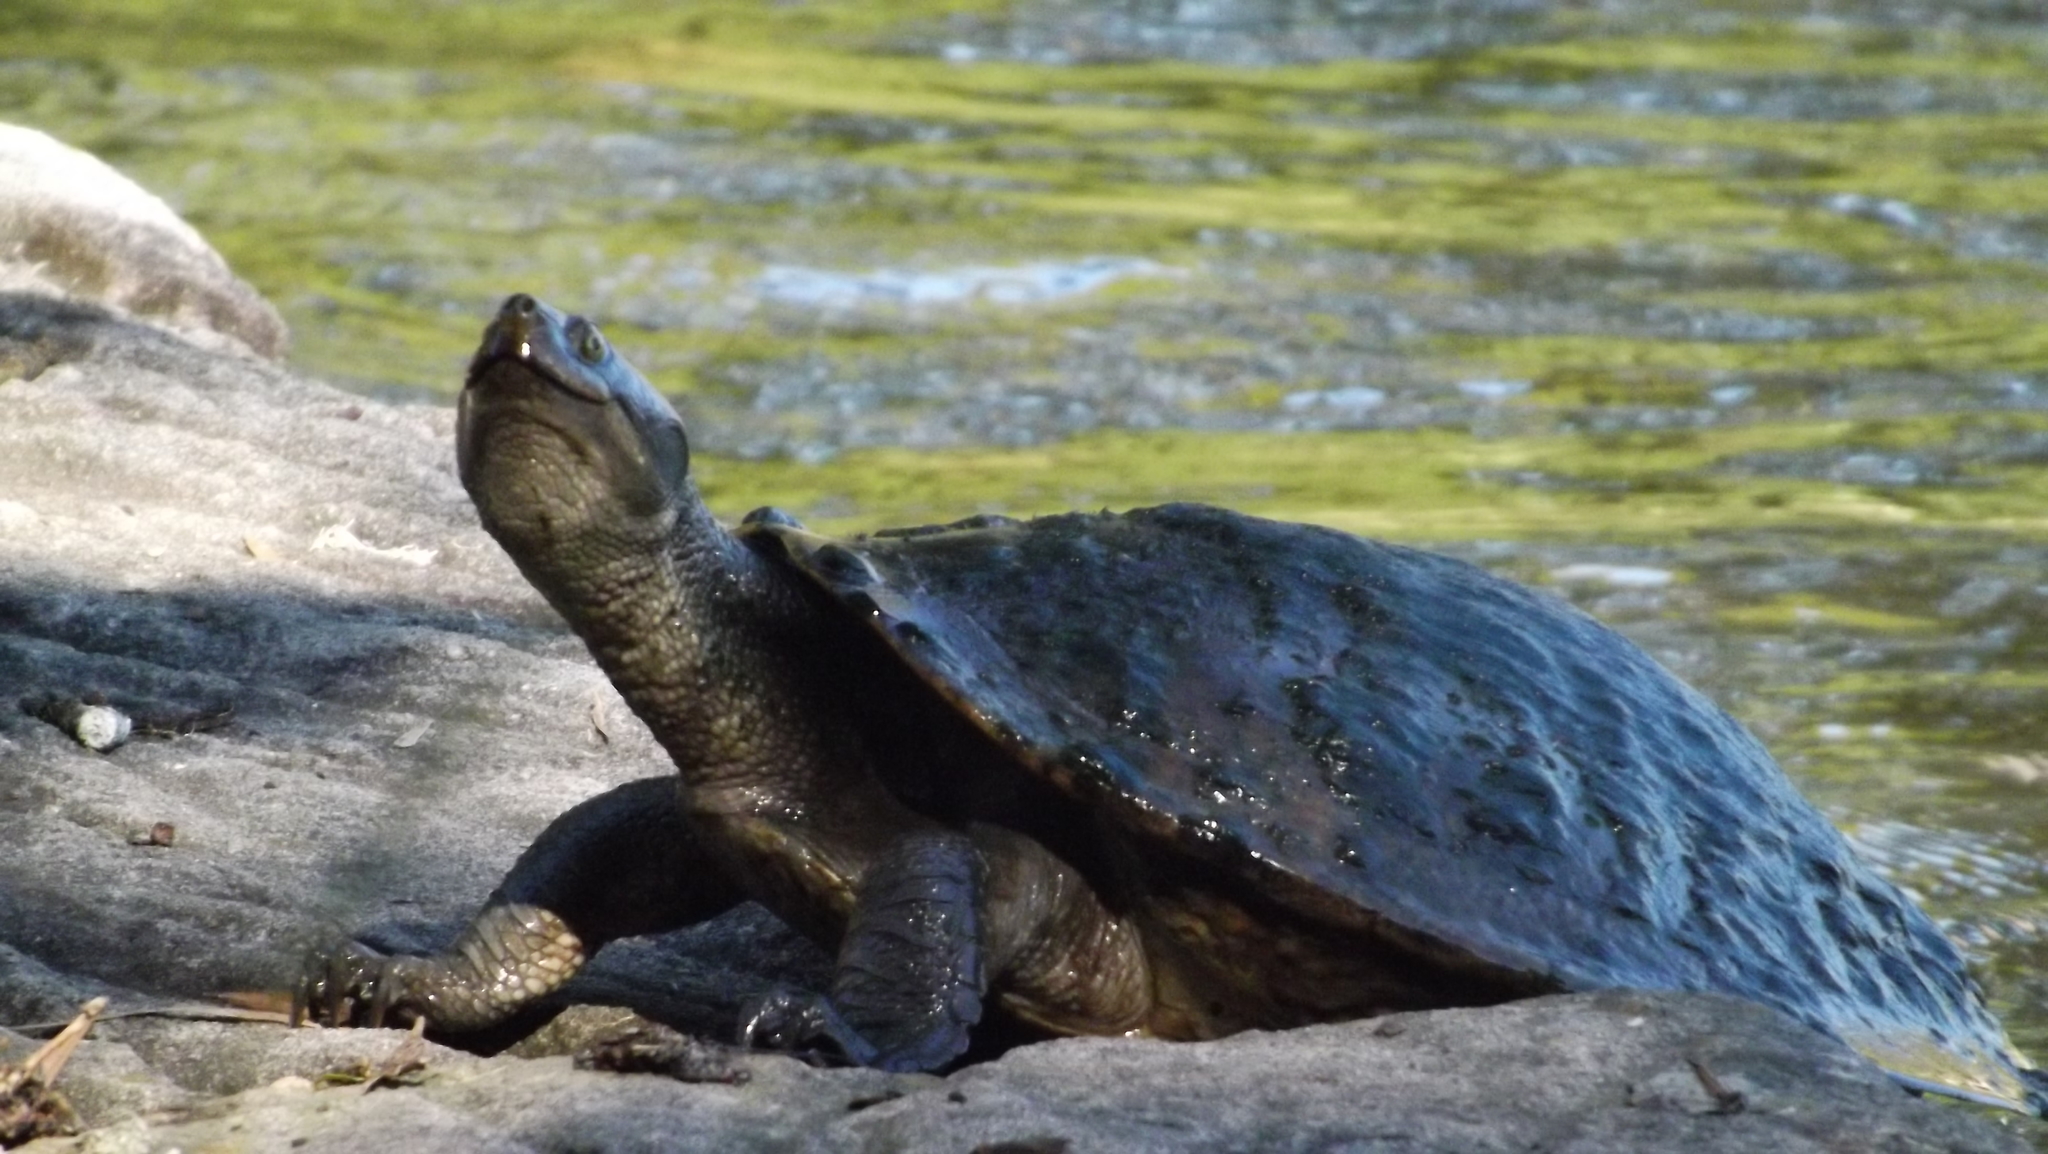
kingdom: Animalia
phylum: Chordata
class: Testudines
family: Chelidae
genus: Emydura
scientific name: Emydura macquarii
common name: Murray river turtle
